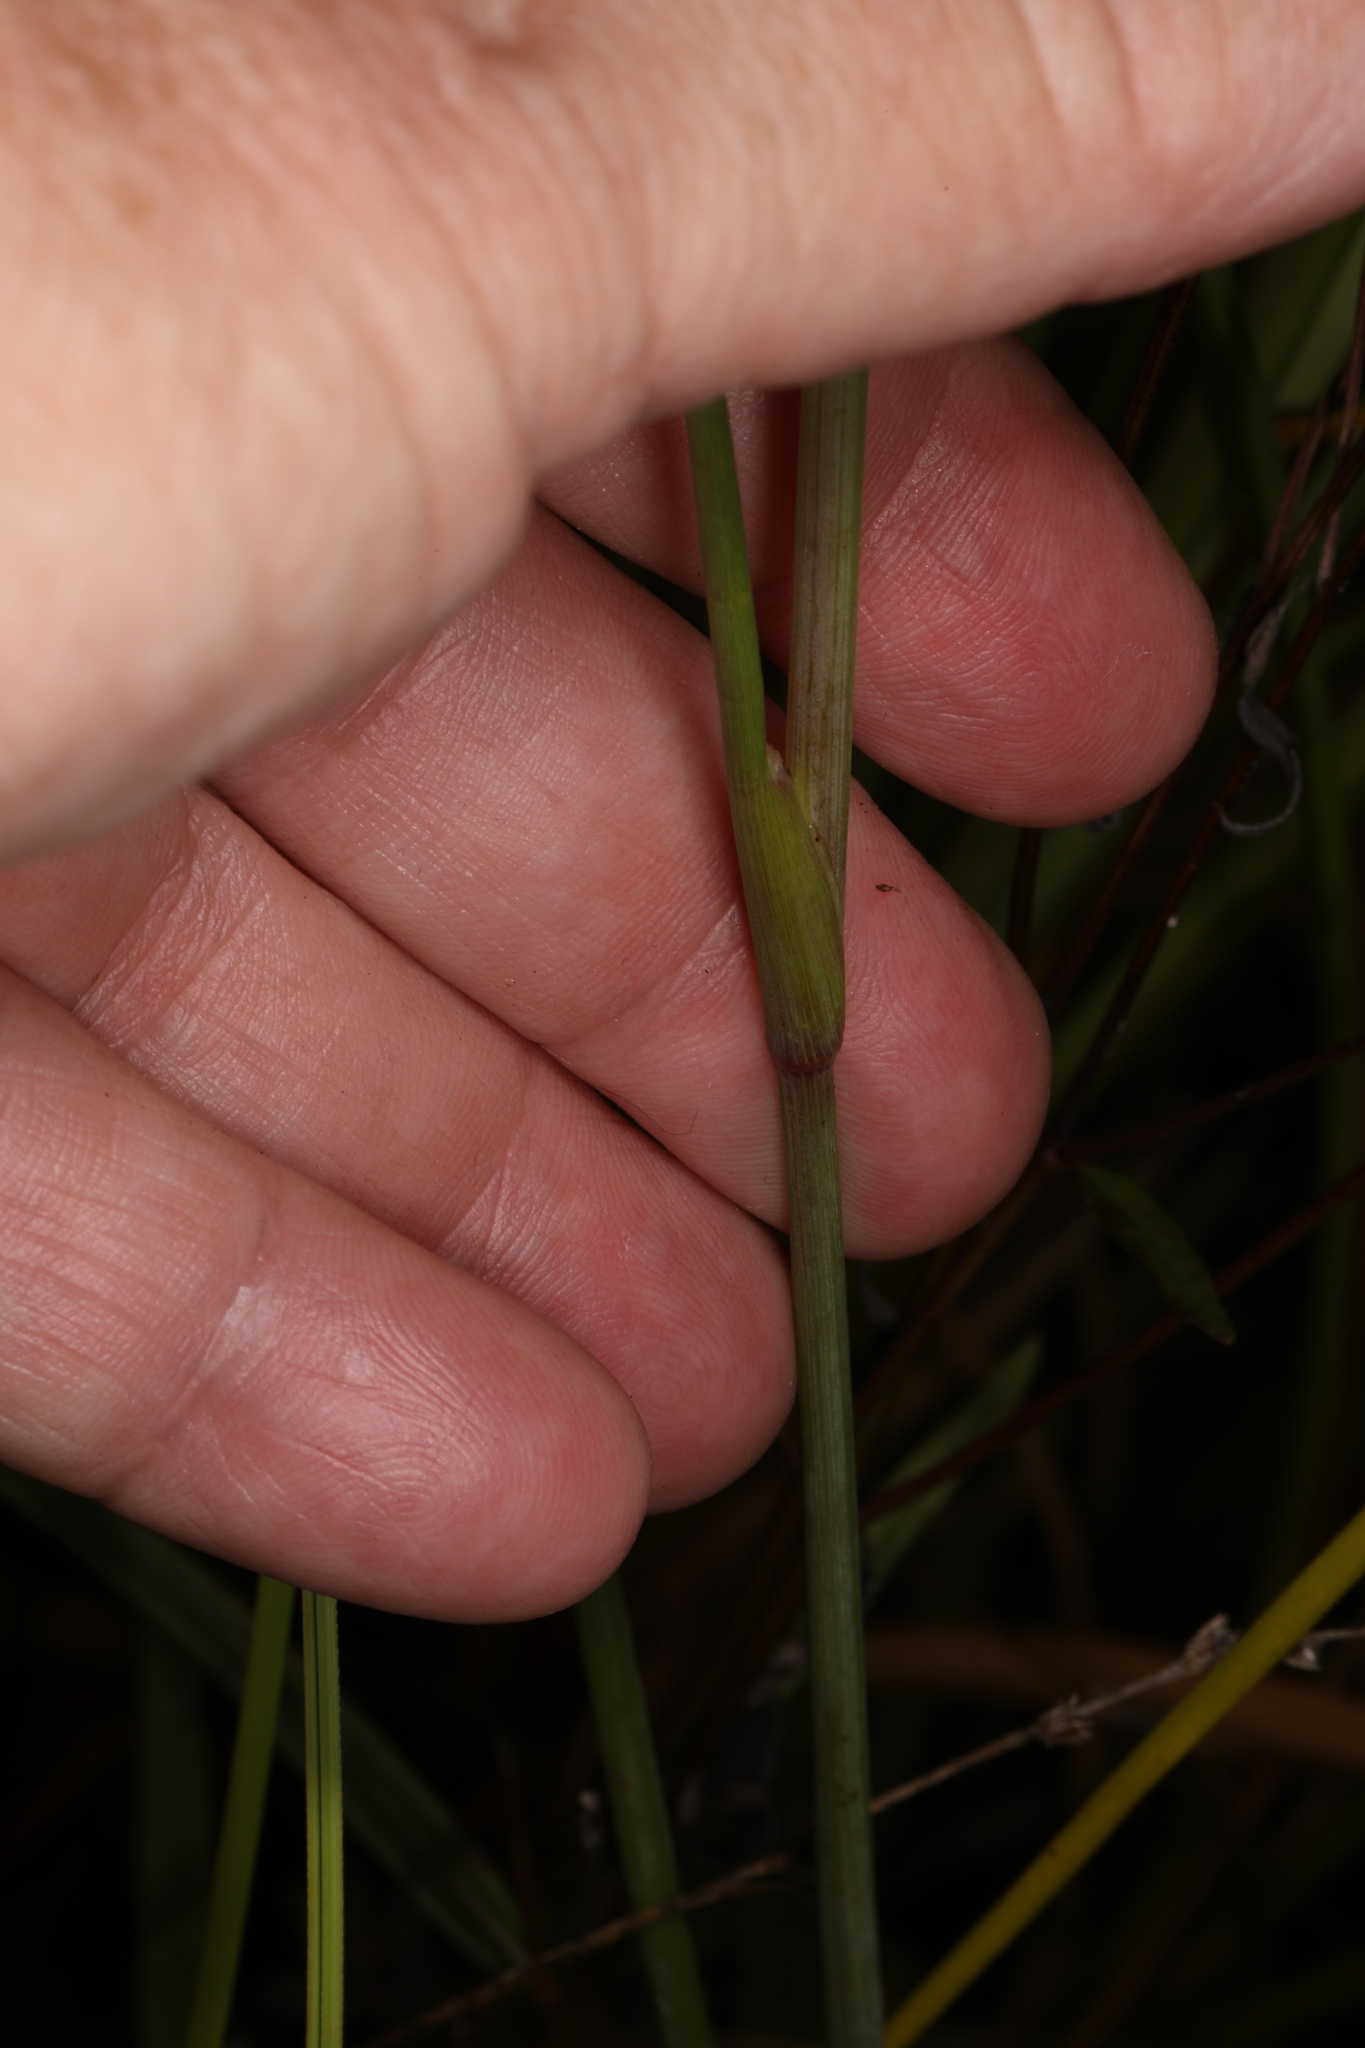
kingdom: Plantae
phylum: Tracheophyta
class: Magnoliopsida
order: Apiales
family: Apiaceae
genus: Tiedemannia
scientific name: Tiedemannia filiformis
